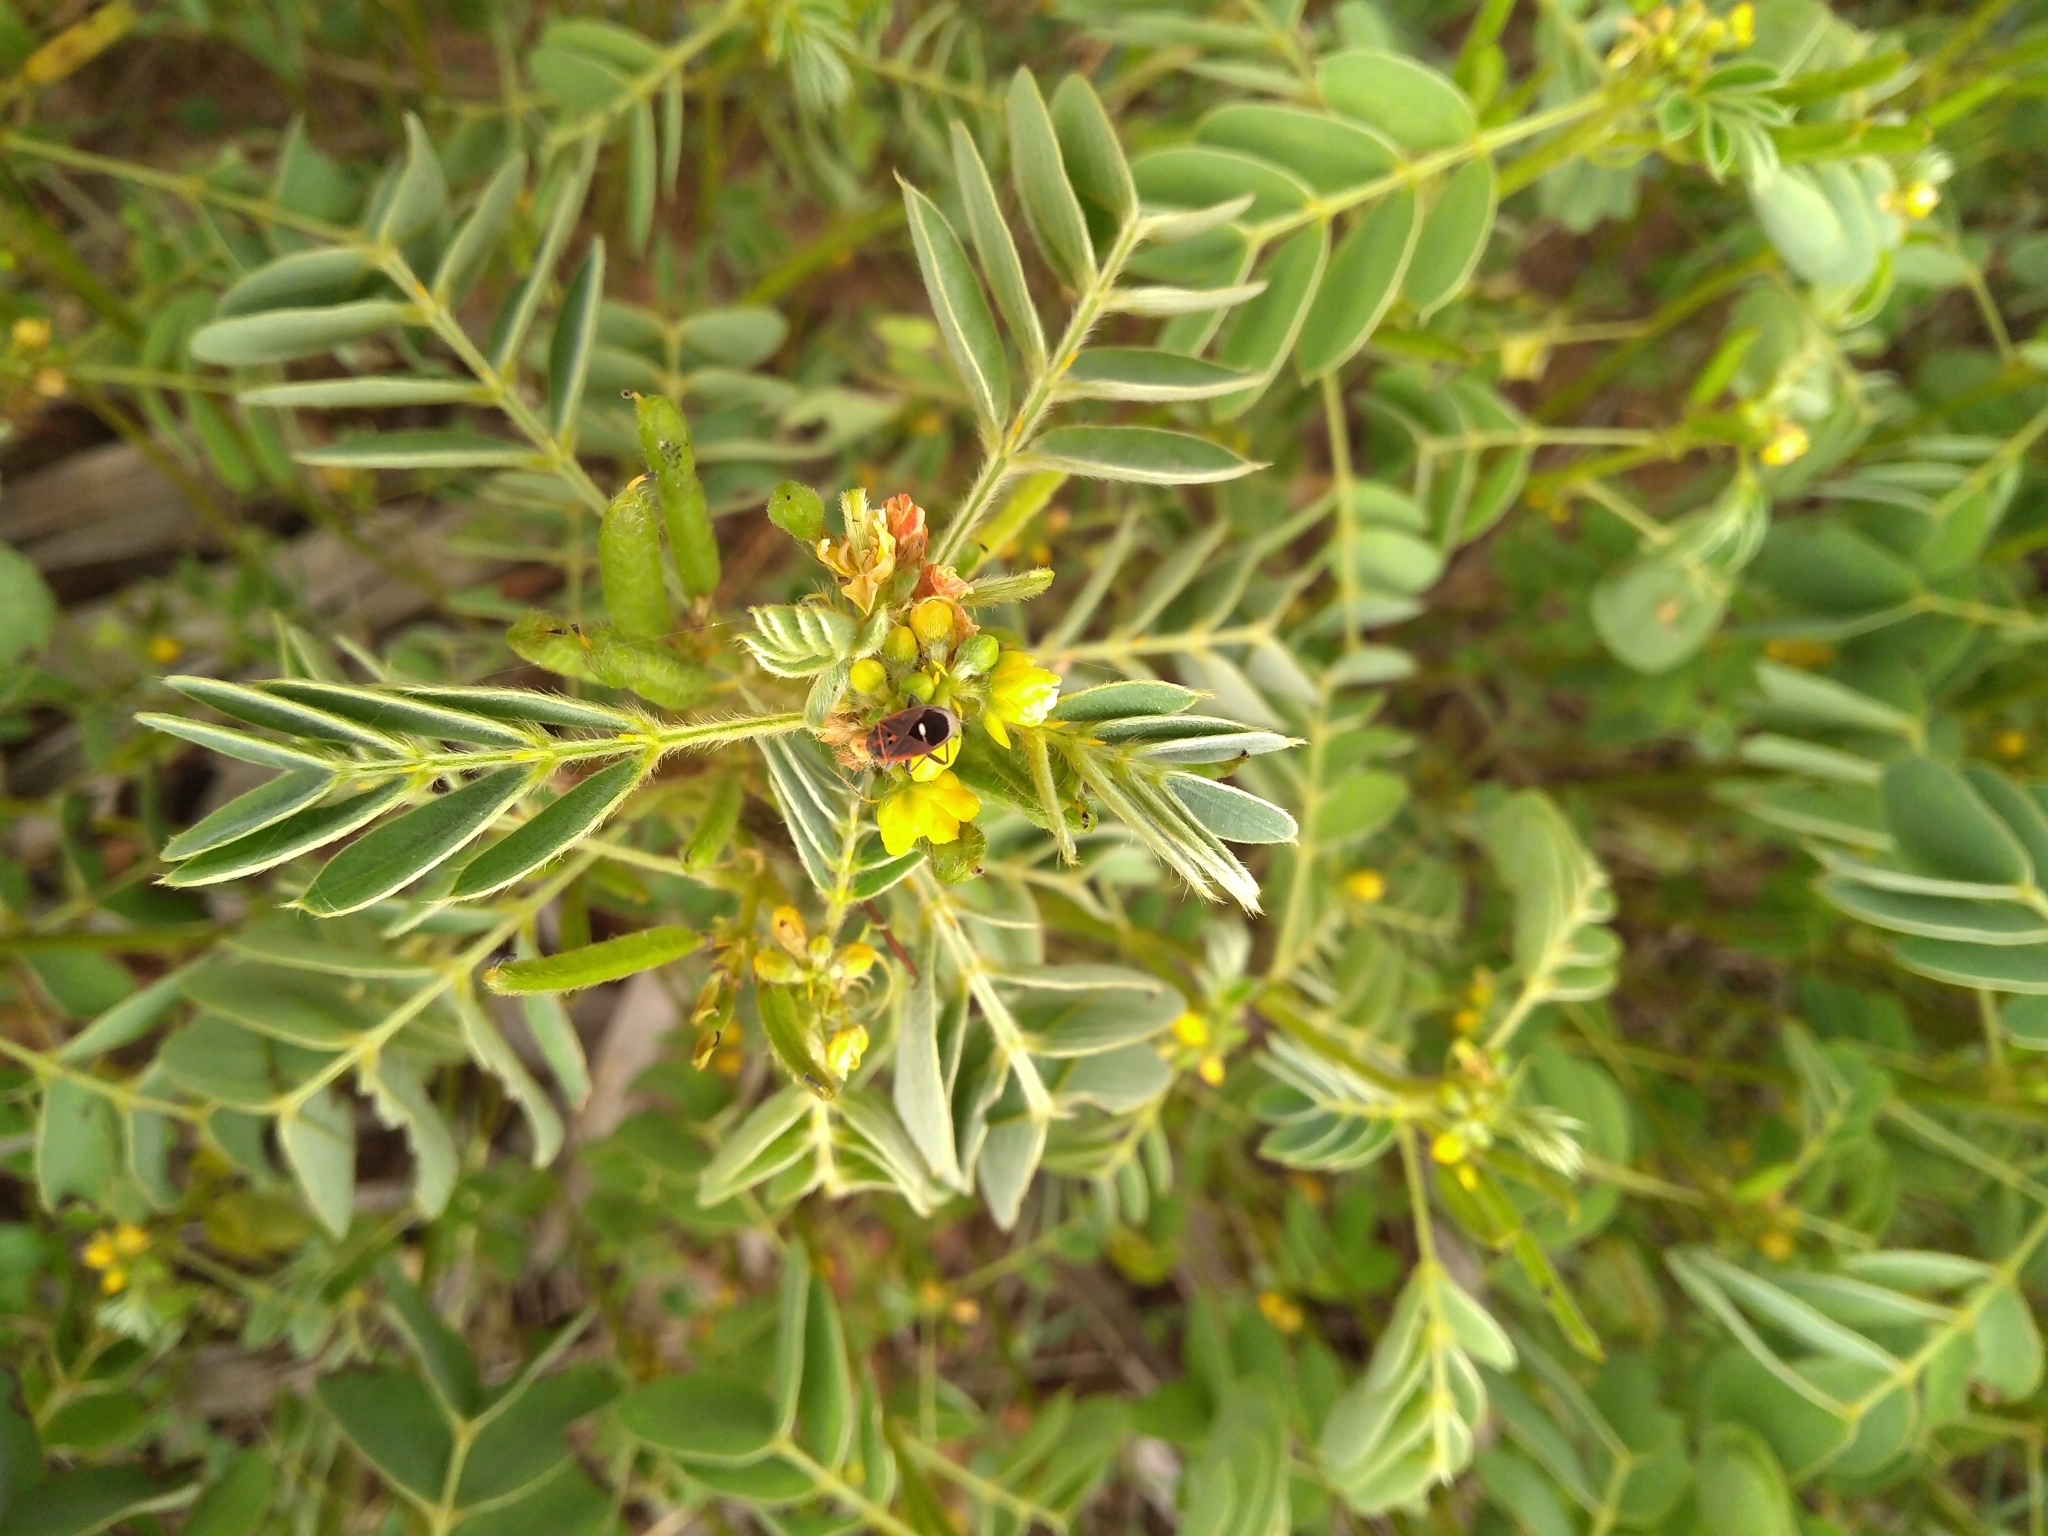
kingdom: Animalia
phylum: Arthropoda
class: Insecta
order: Hemiptera
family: Lygaeidae
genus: Aspilocoryphus
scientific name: Aspilocoryphus mendicus
